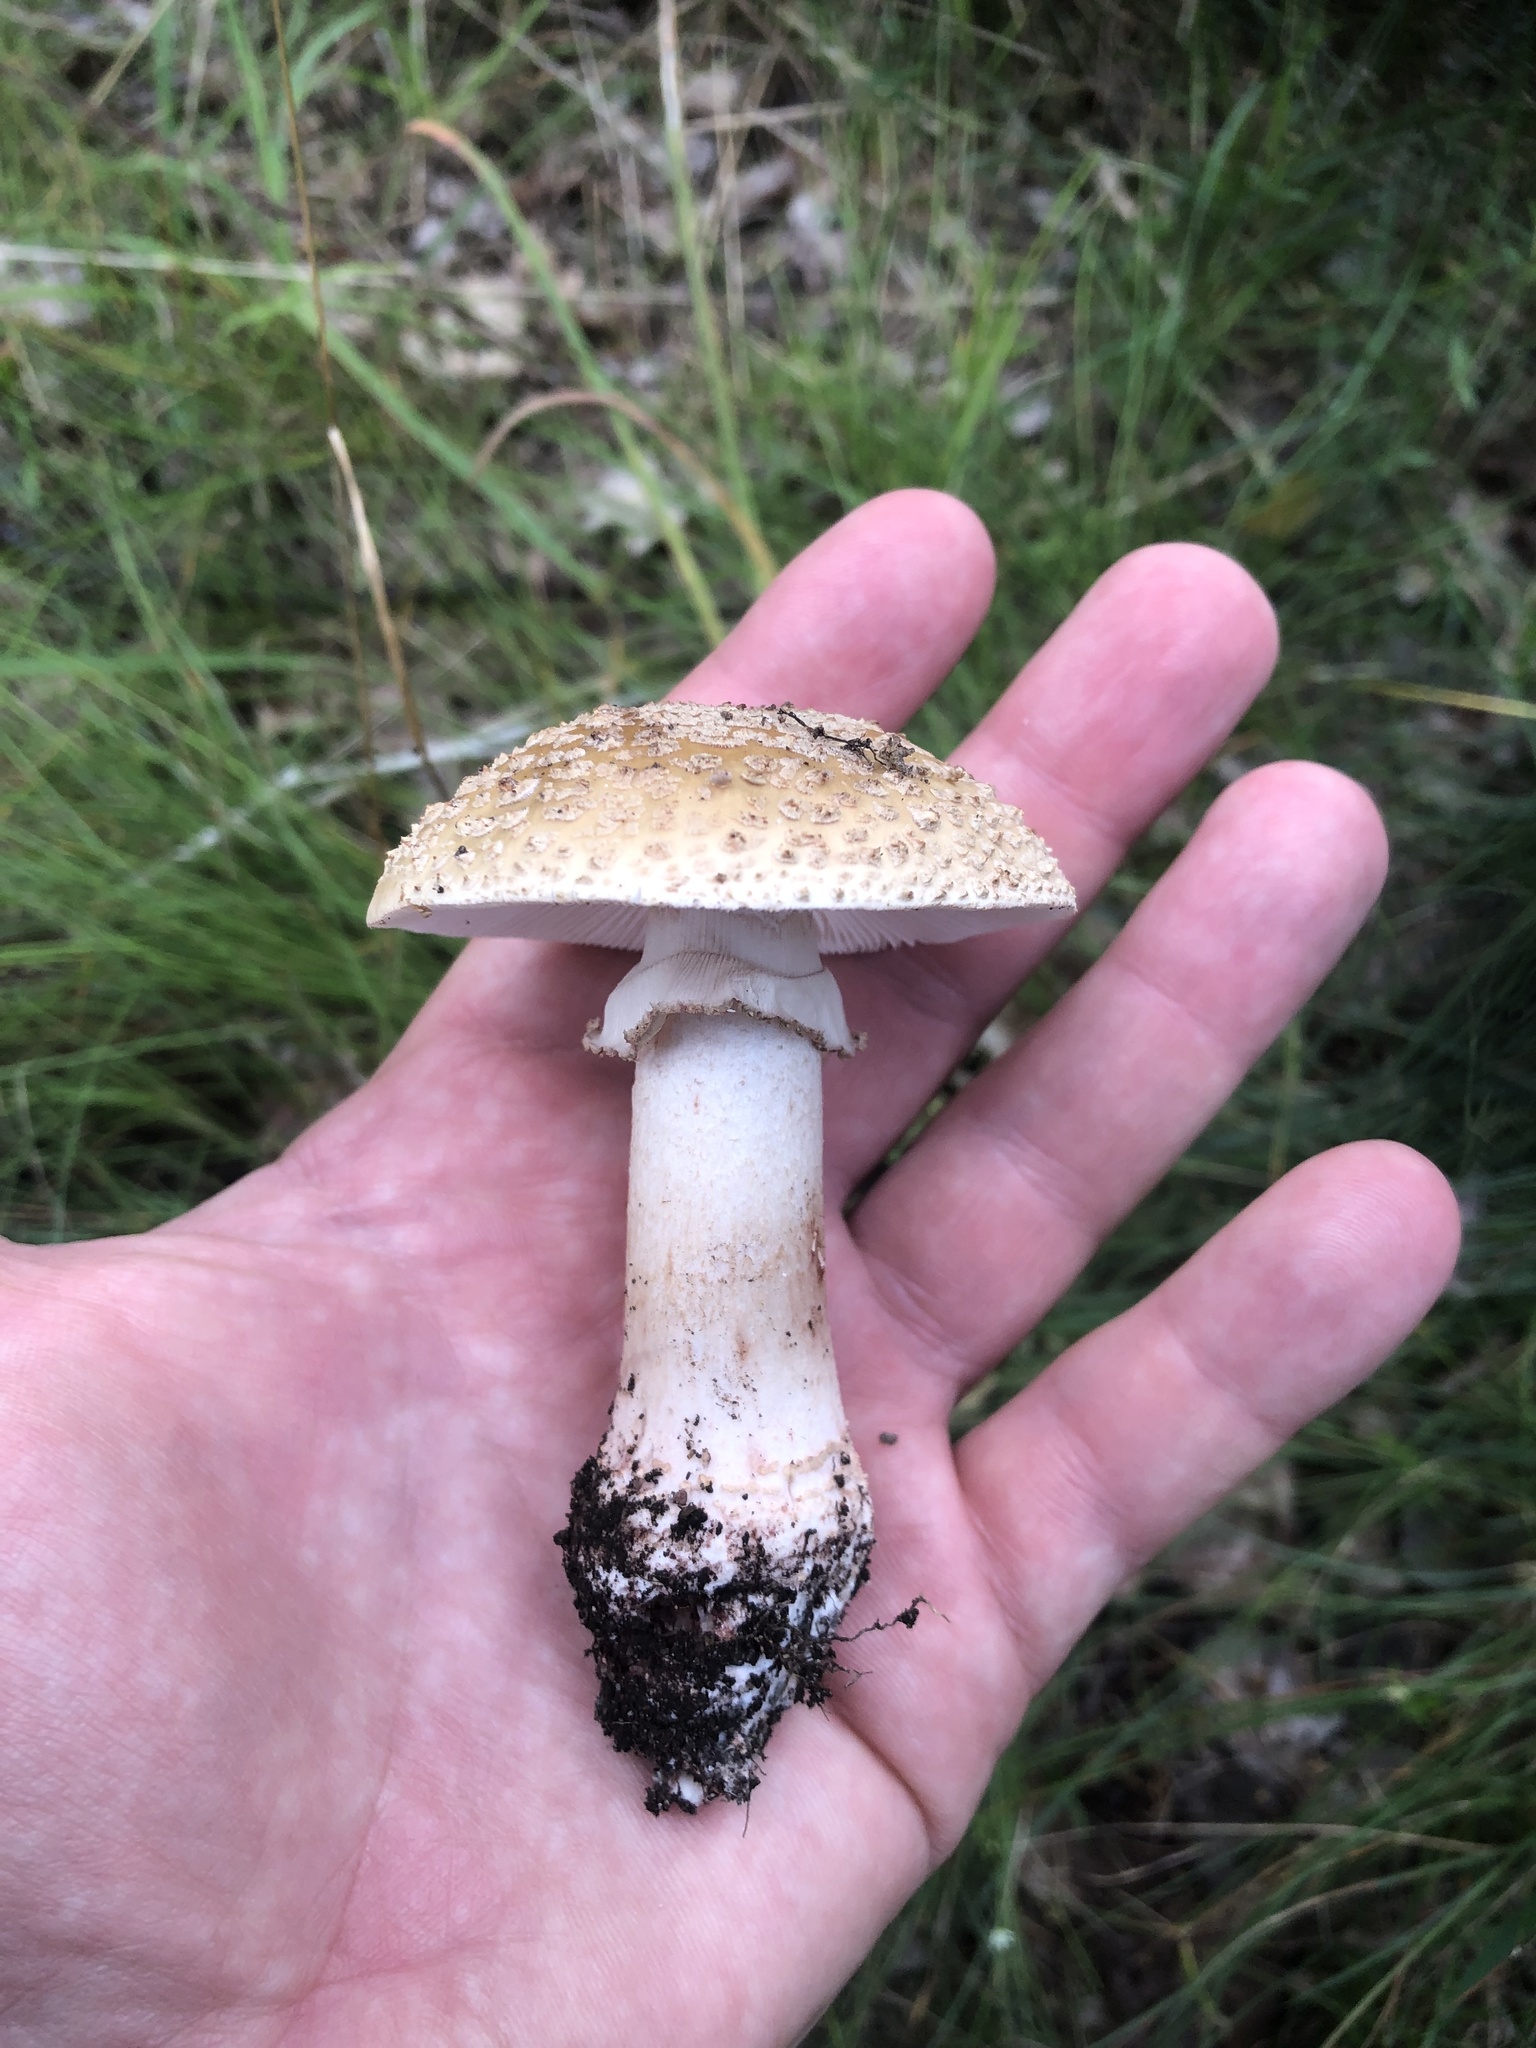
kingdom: Fungi
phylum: Basidiomycota
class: Agaricomycetes
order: Agaricales
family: Amanitaceae
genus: Amanita
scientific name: Amanita rubescens
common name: Blusher
